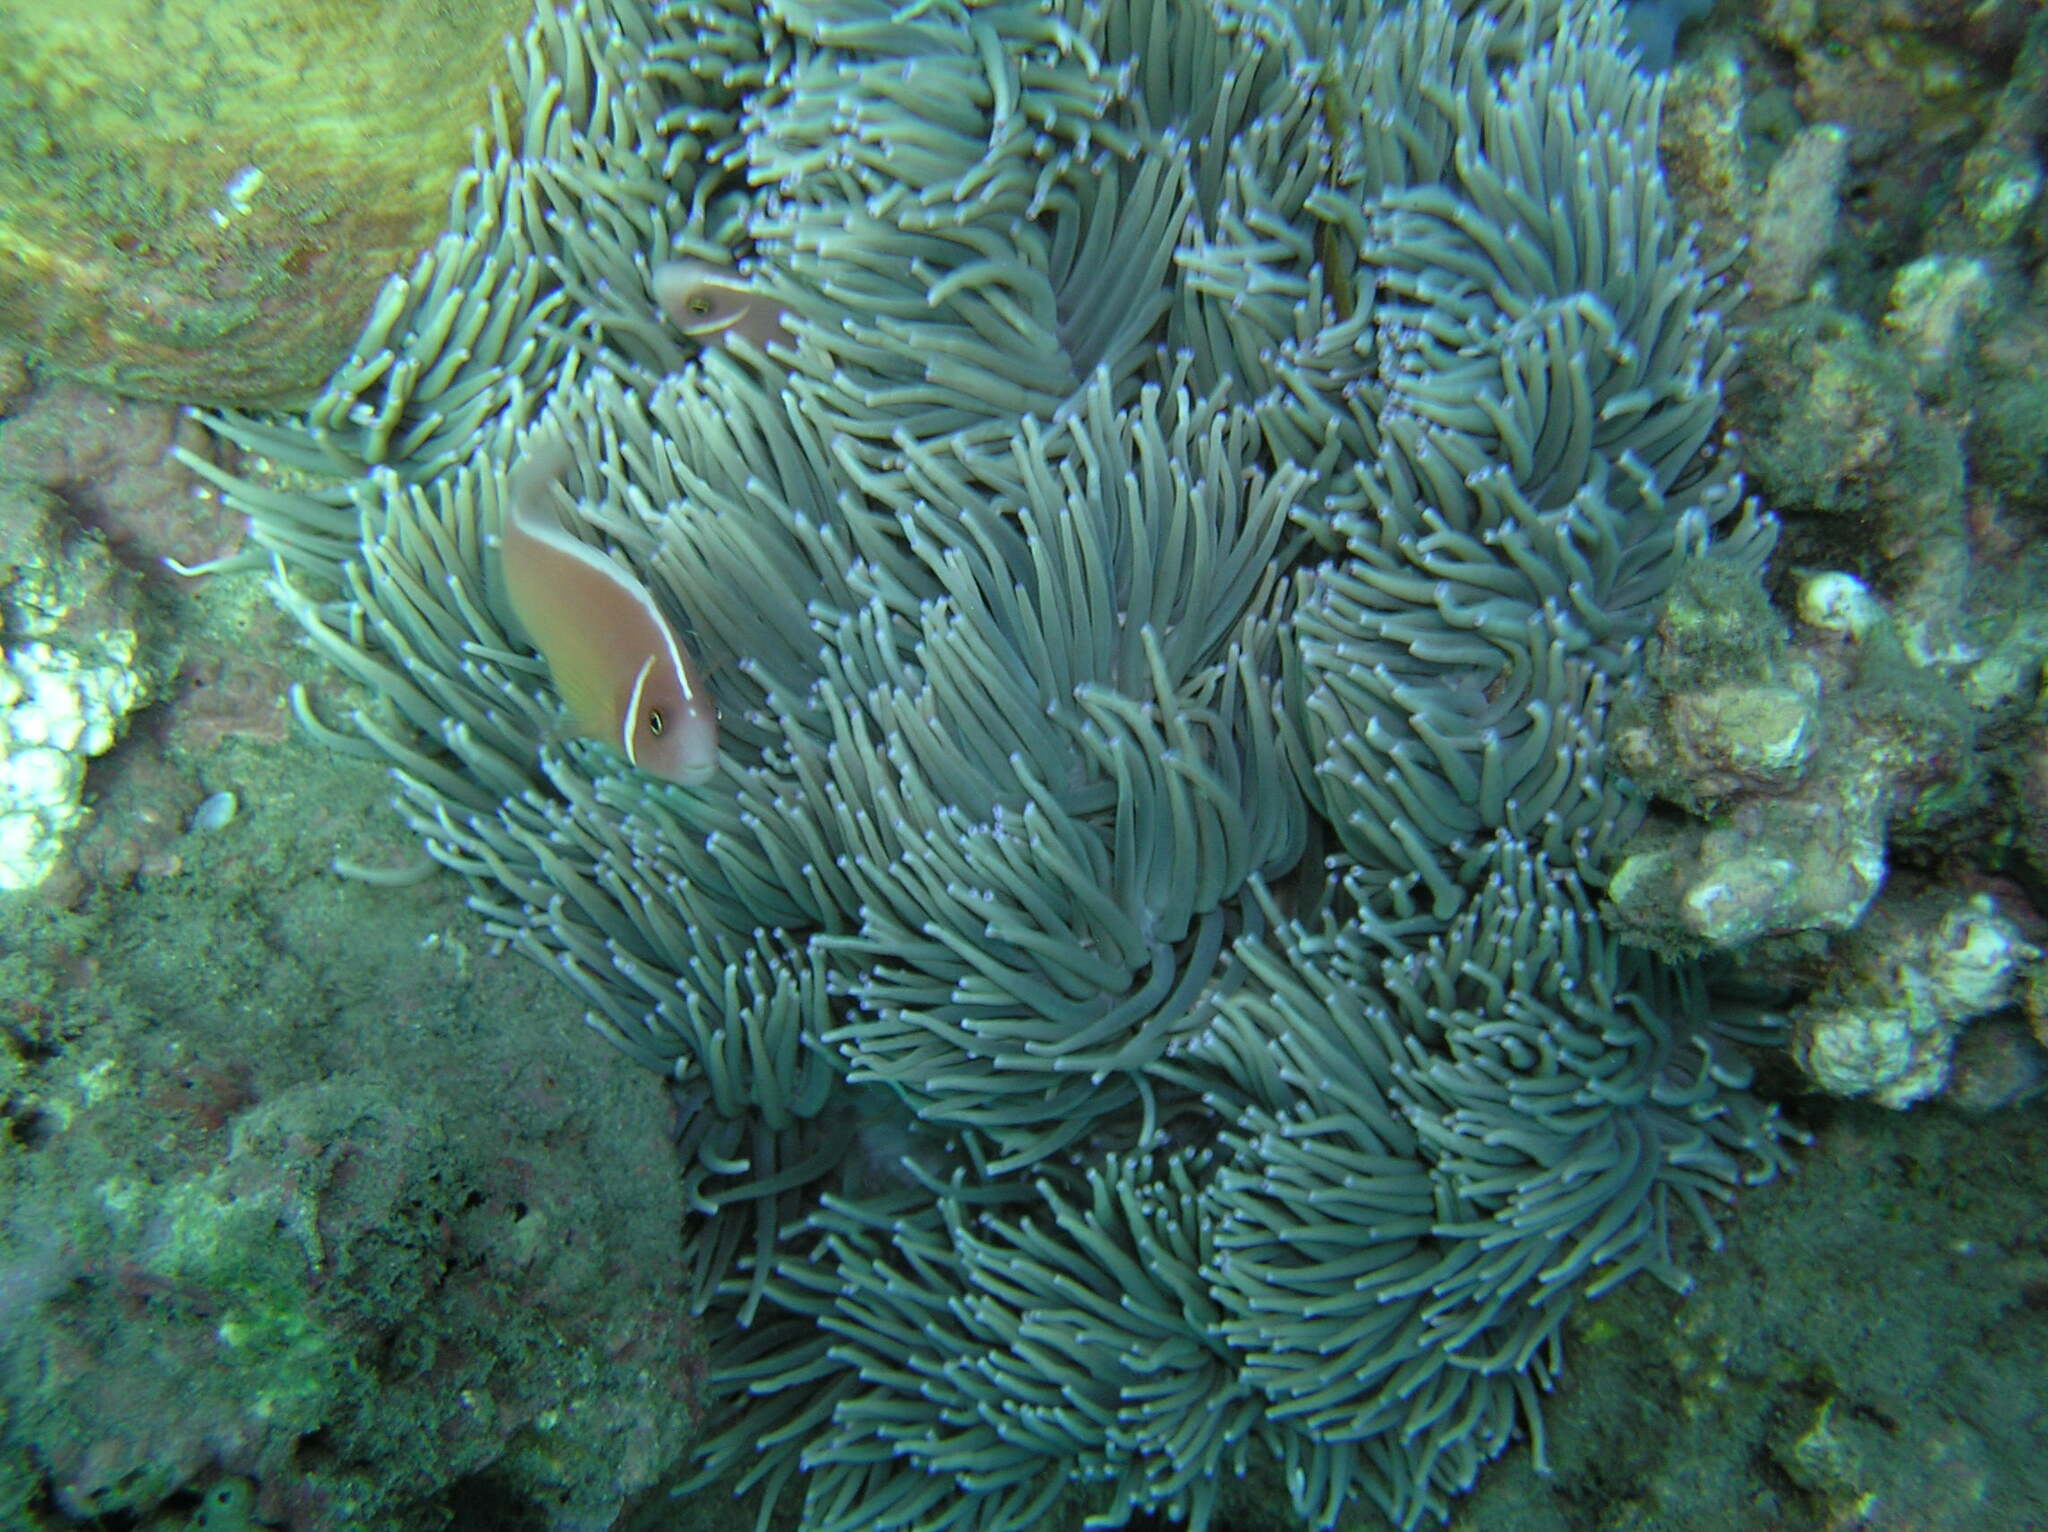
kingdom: Animalia
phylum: Chordata
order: Perciformes
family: Pomacentridae
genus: Amphiprion
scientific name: Amphiprion perideraion
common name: Pink anemonefish
